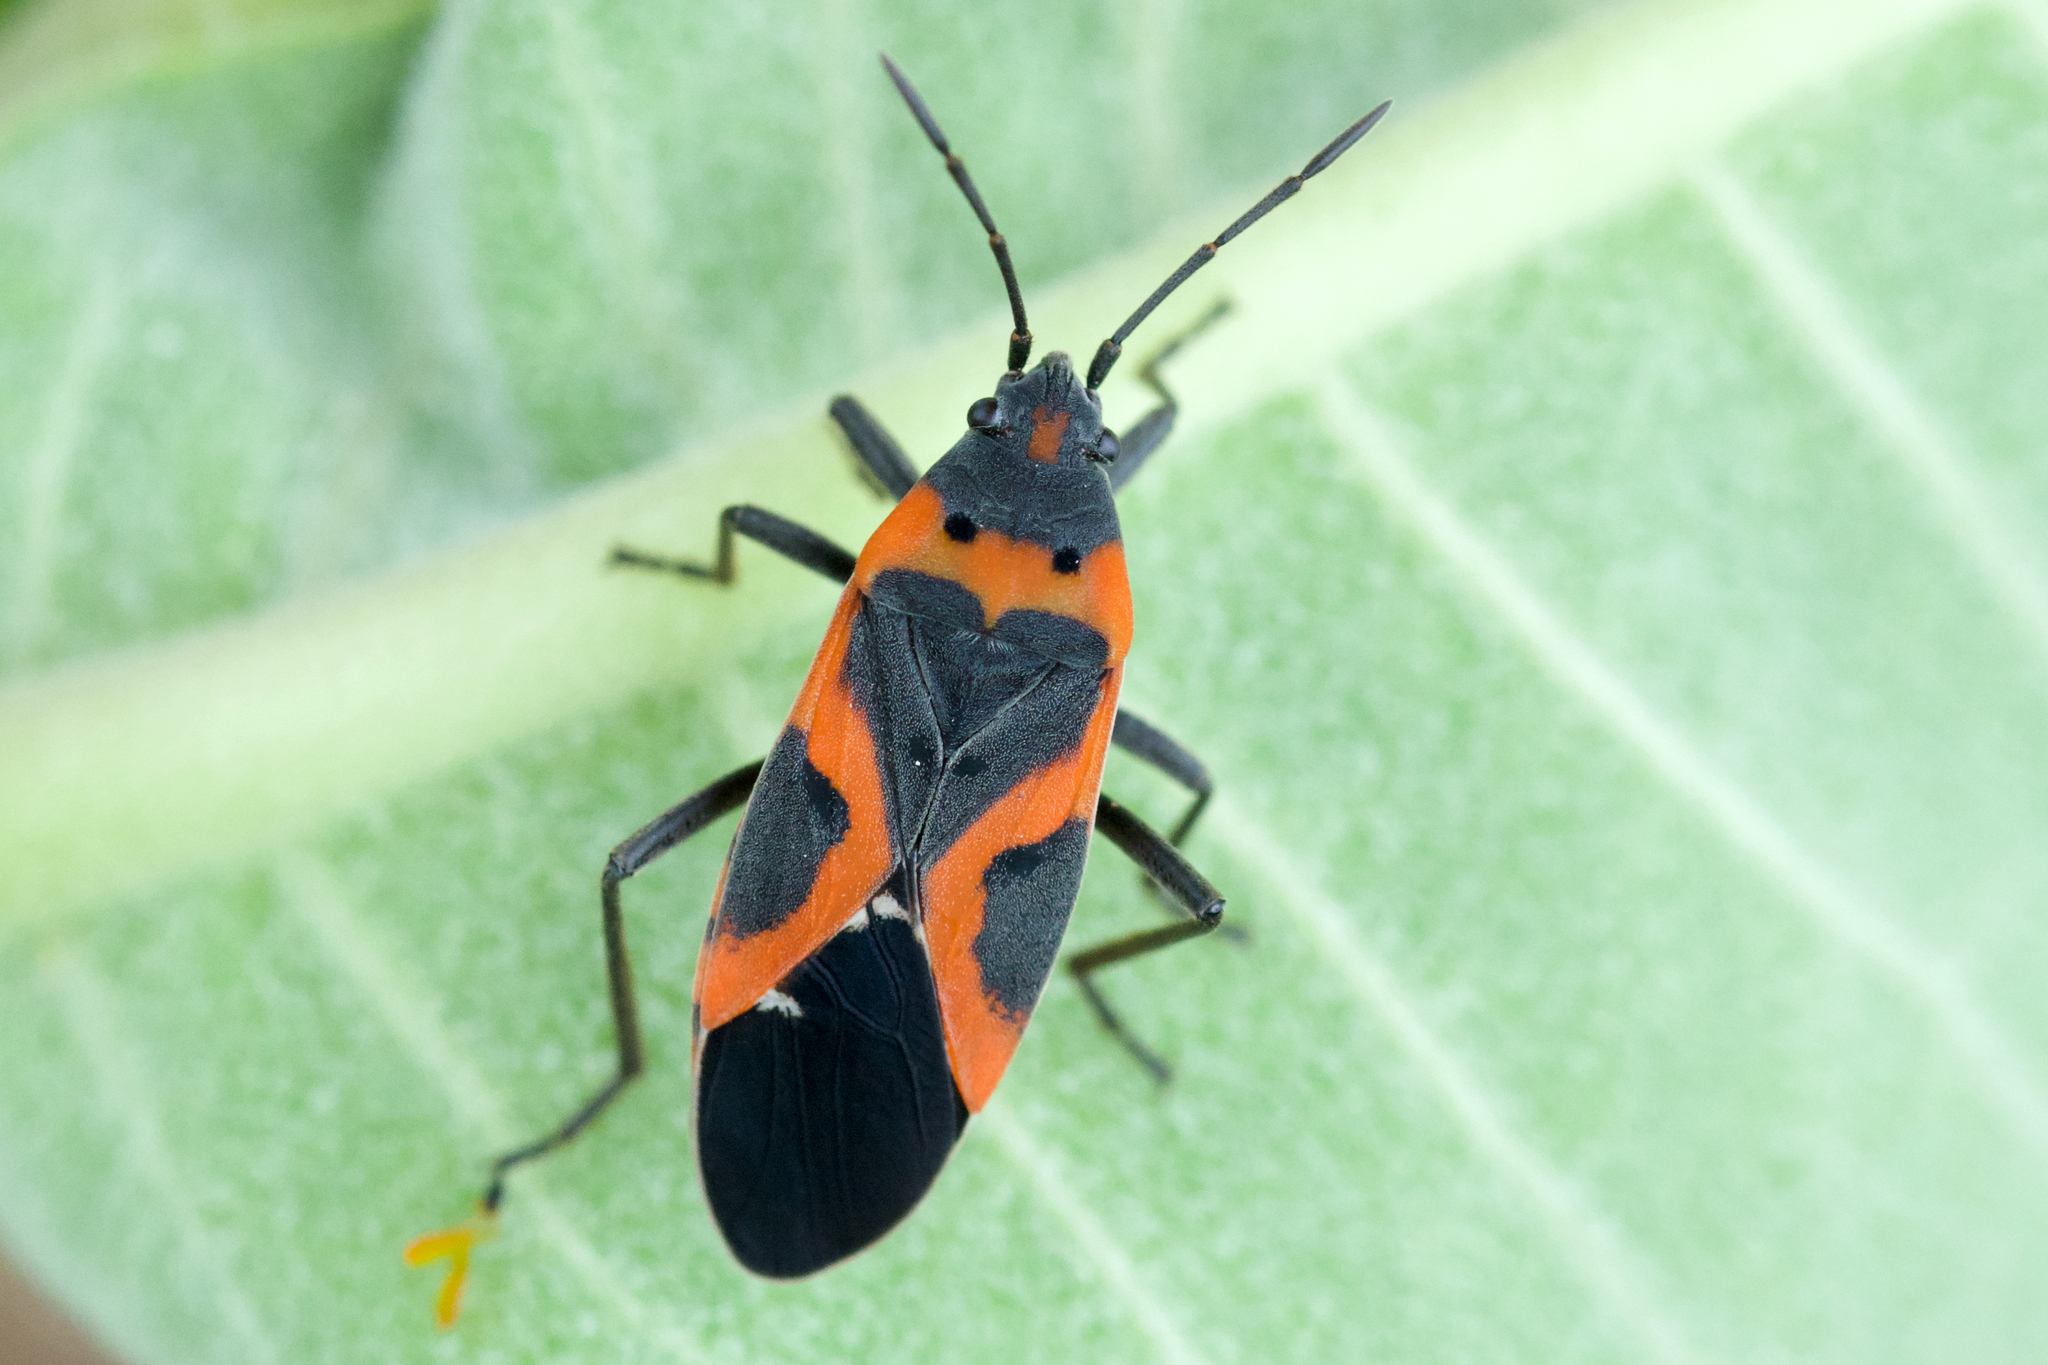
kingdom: Animalia
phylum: Arthropoda
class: Insecta
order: Hemiptera
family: Lygaeidae
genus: Lygaeus
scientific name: Lygaeus kalmii
